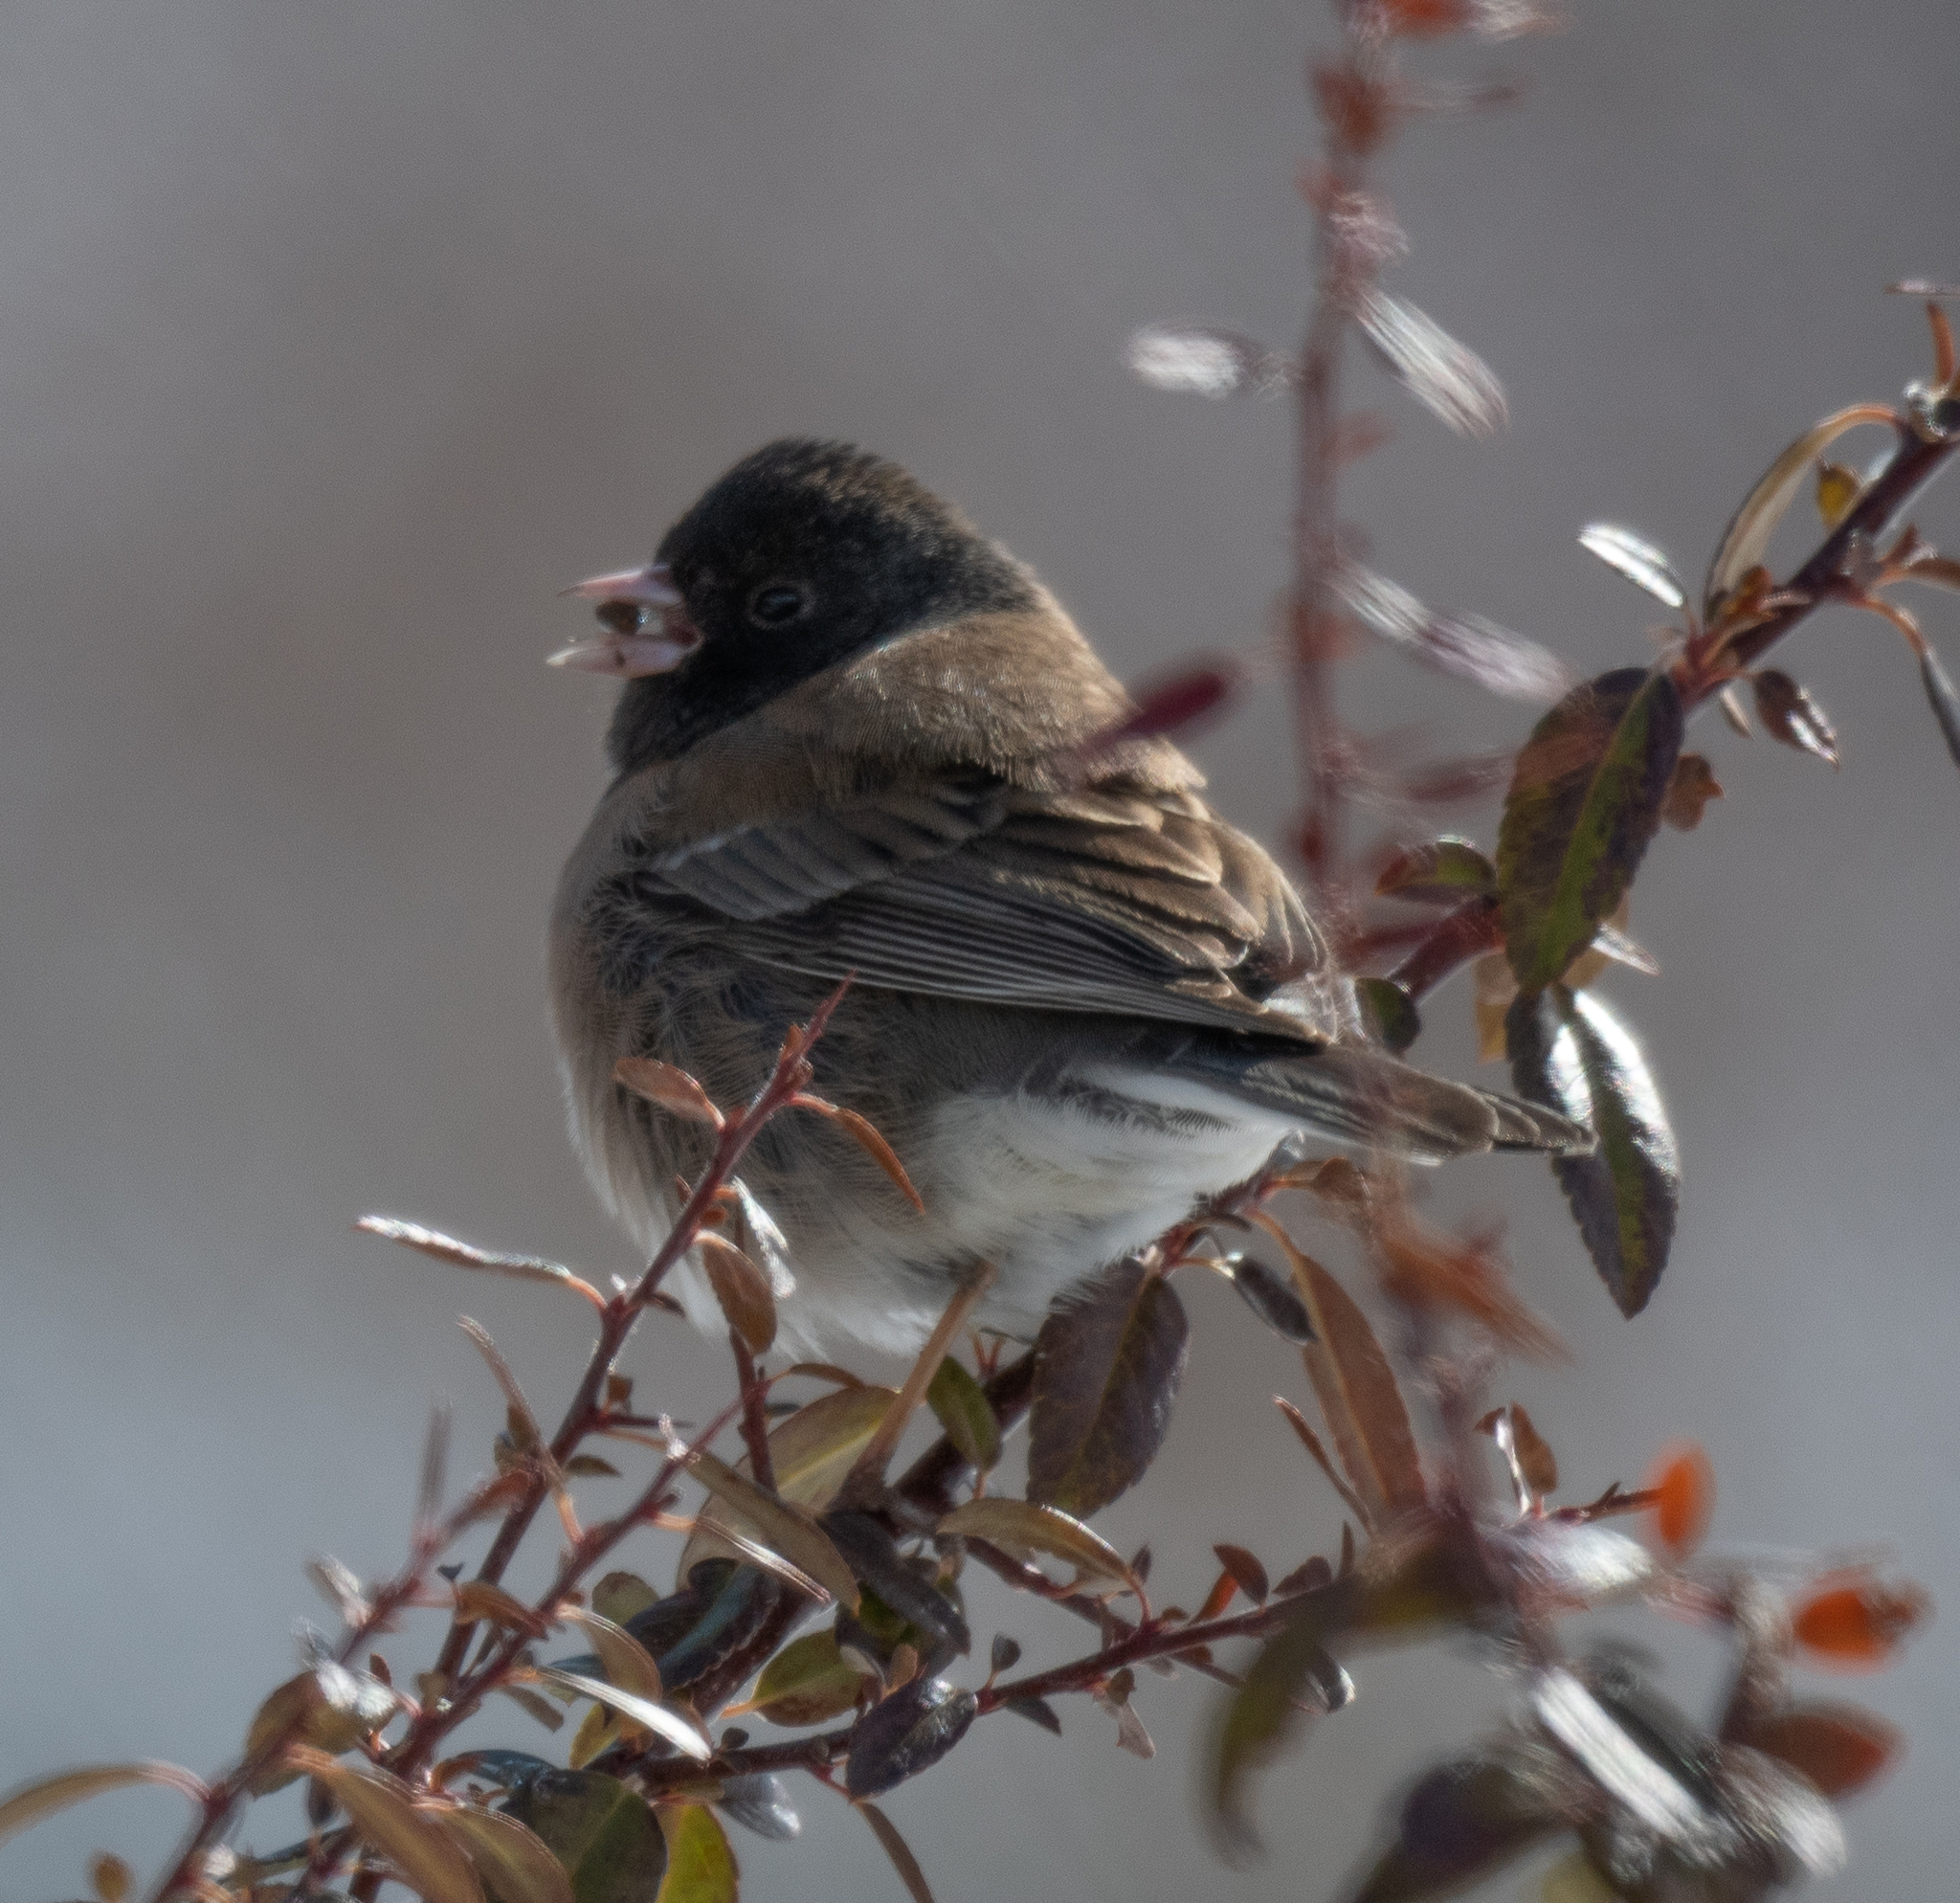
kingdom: Animalia
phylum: Chordata
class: Aves
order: Passeriformes
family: Passerellidae
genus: Junco
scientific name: Junco hyemalis
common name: Dark-eyed junco
